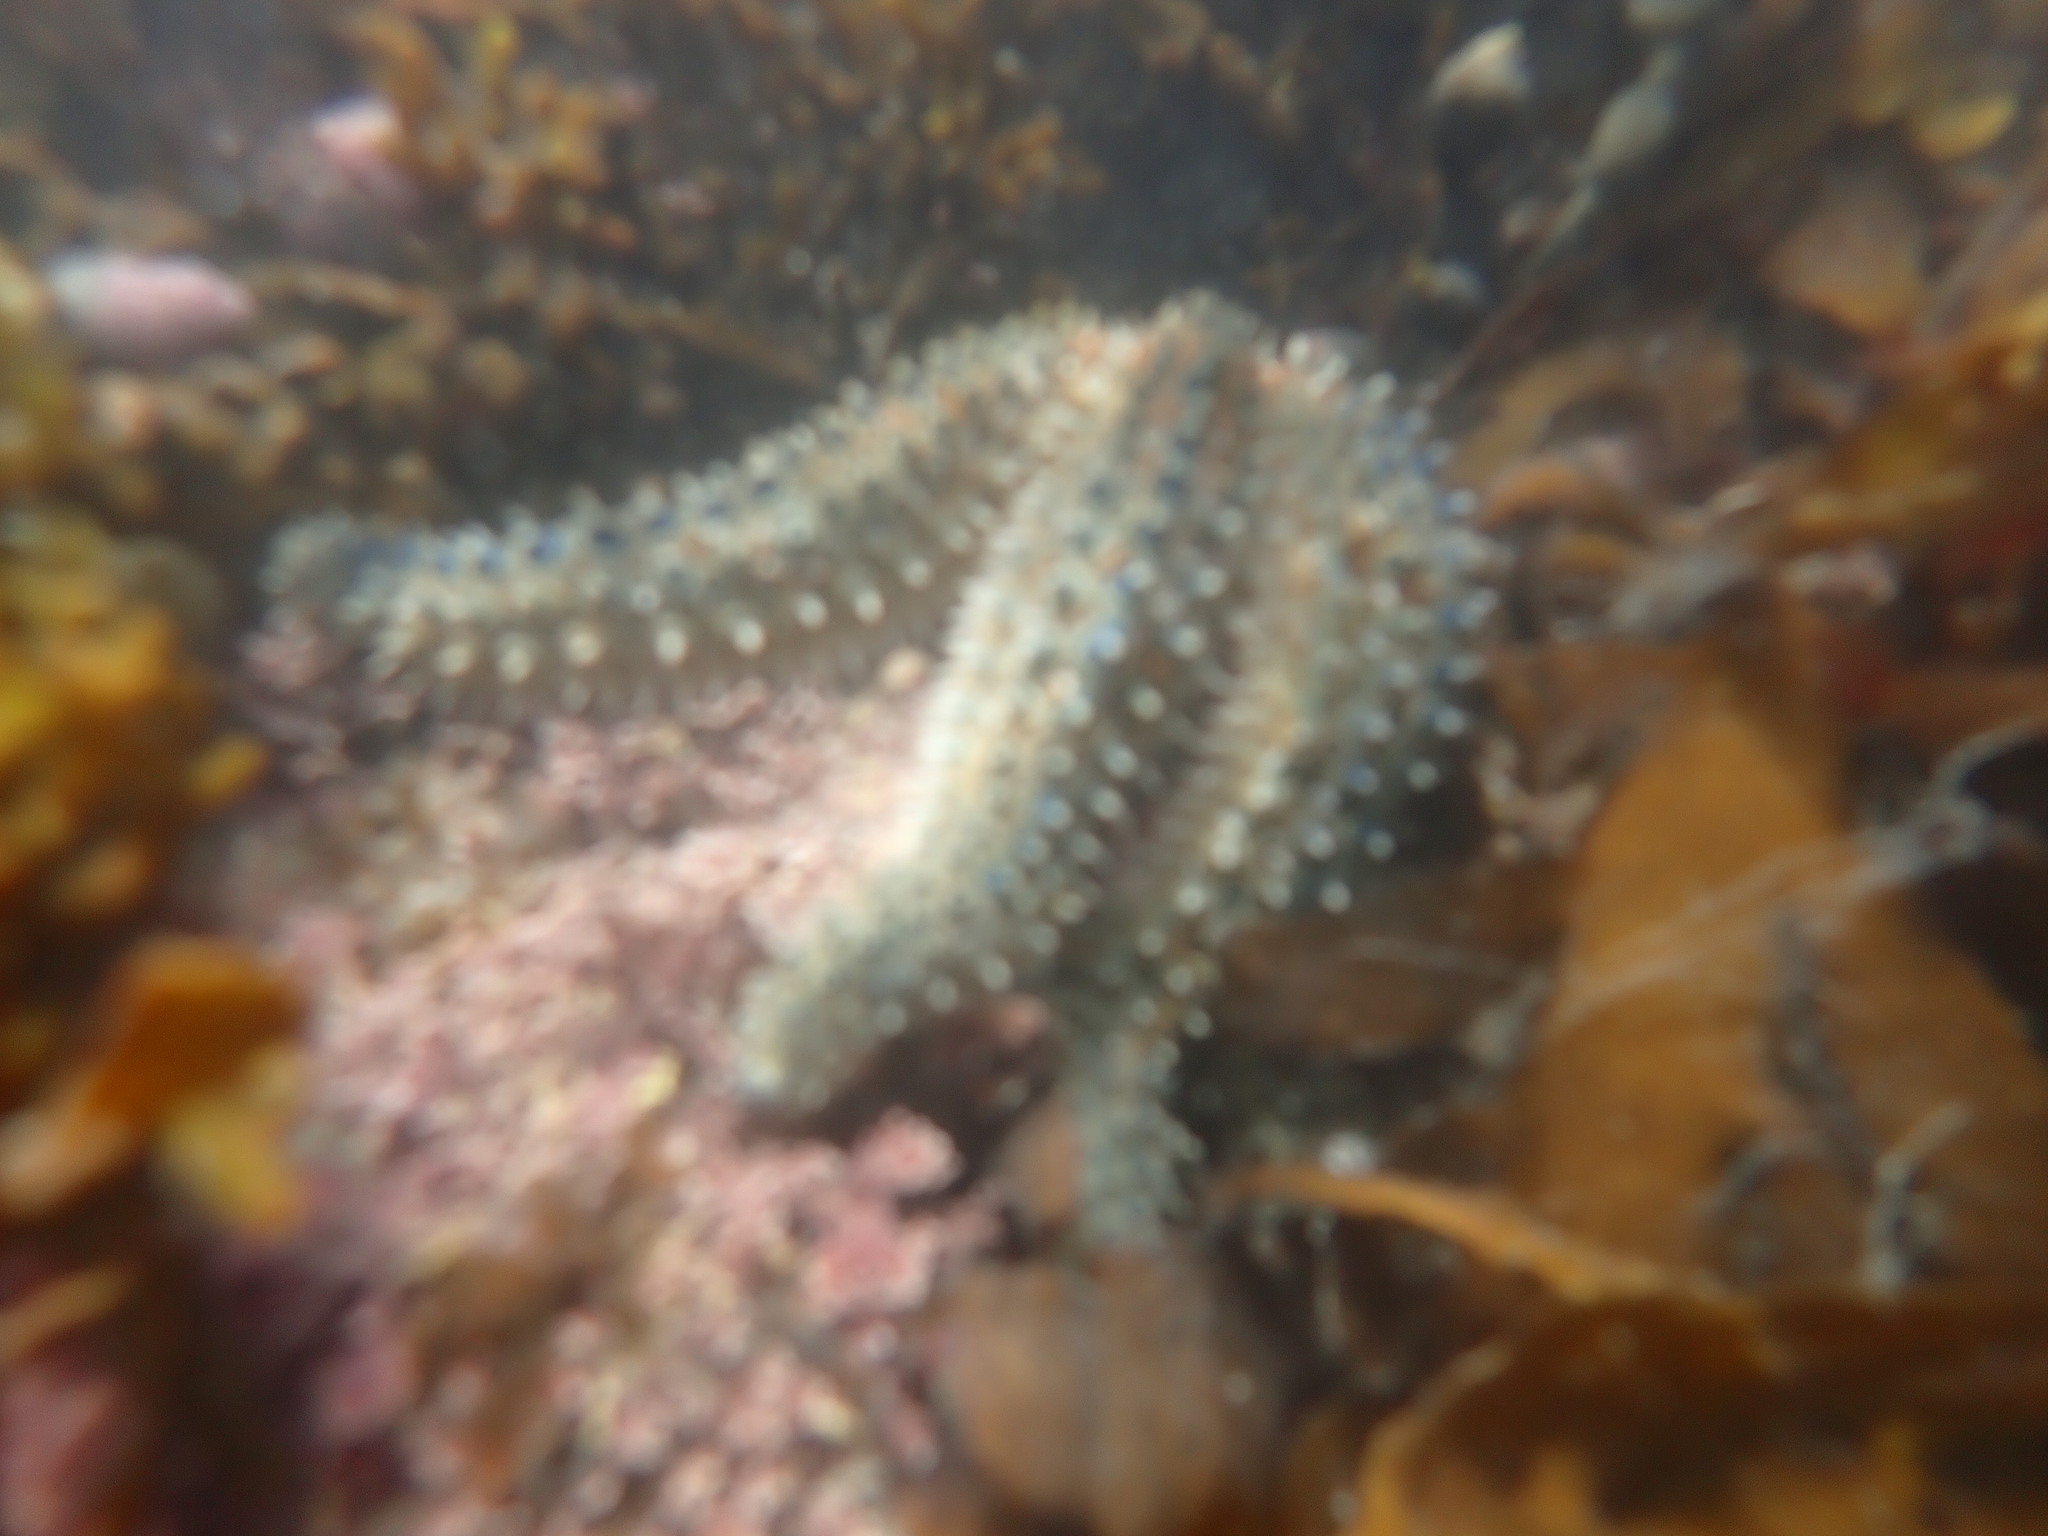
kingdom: Animalia
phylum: Echinodermata
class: Asteroidea
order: Forcipulatida
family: Asteriidae
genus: Coscinasterias
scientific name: Coscinasterias muricata
